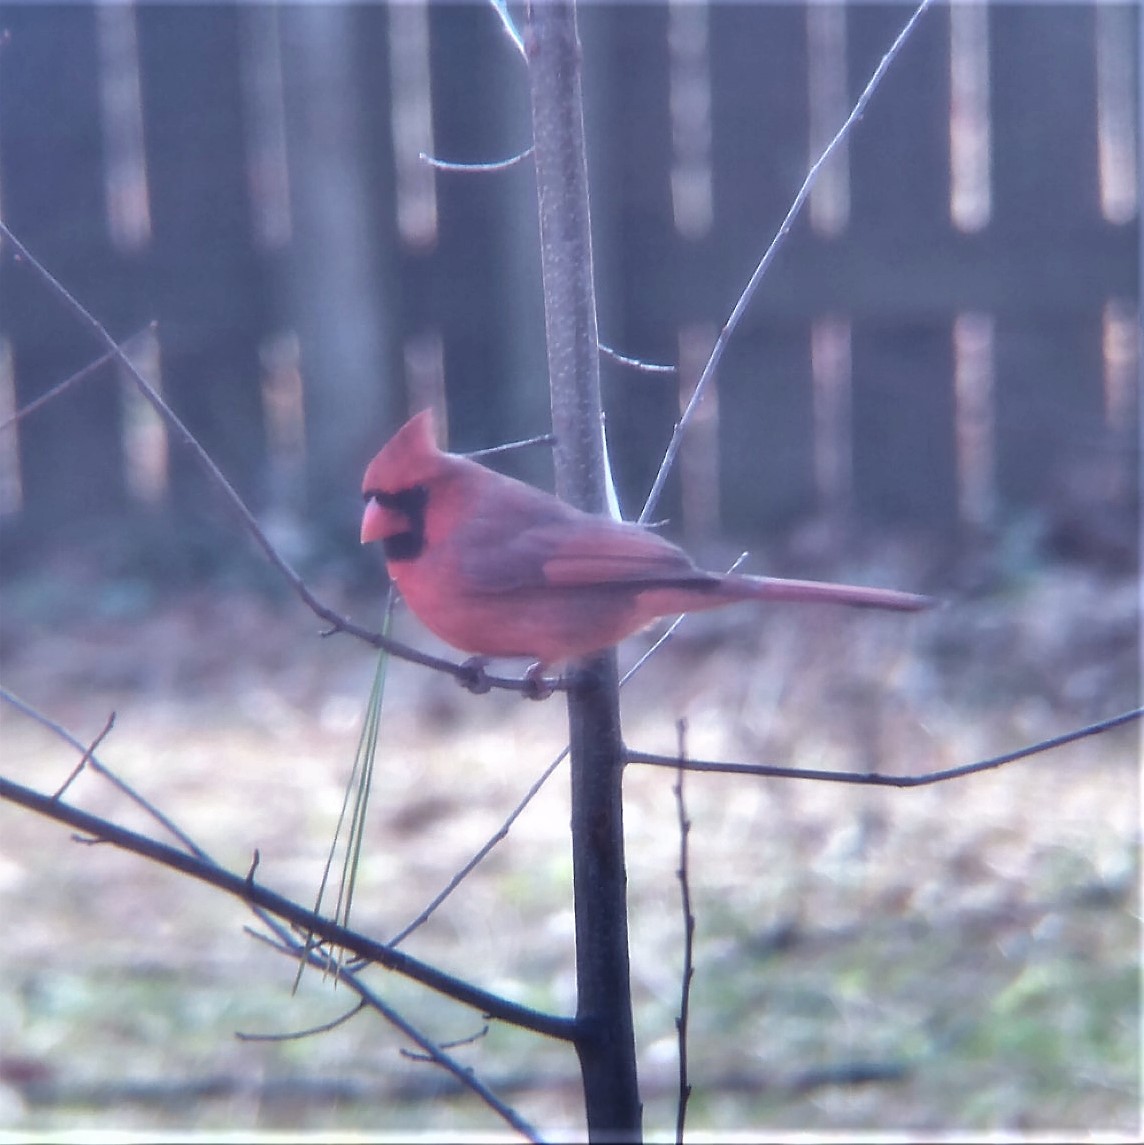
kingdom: Animalia
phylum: Chordata
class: Aves
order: Passeriformes
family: Cardinalidae
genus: Cardinalis
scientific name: Cardinalis cardinalis
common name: Northern cardinal
